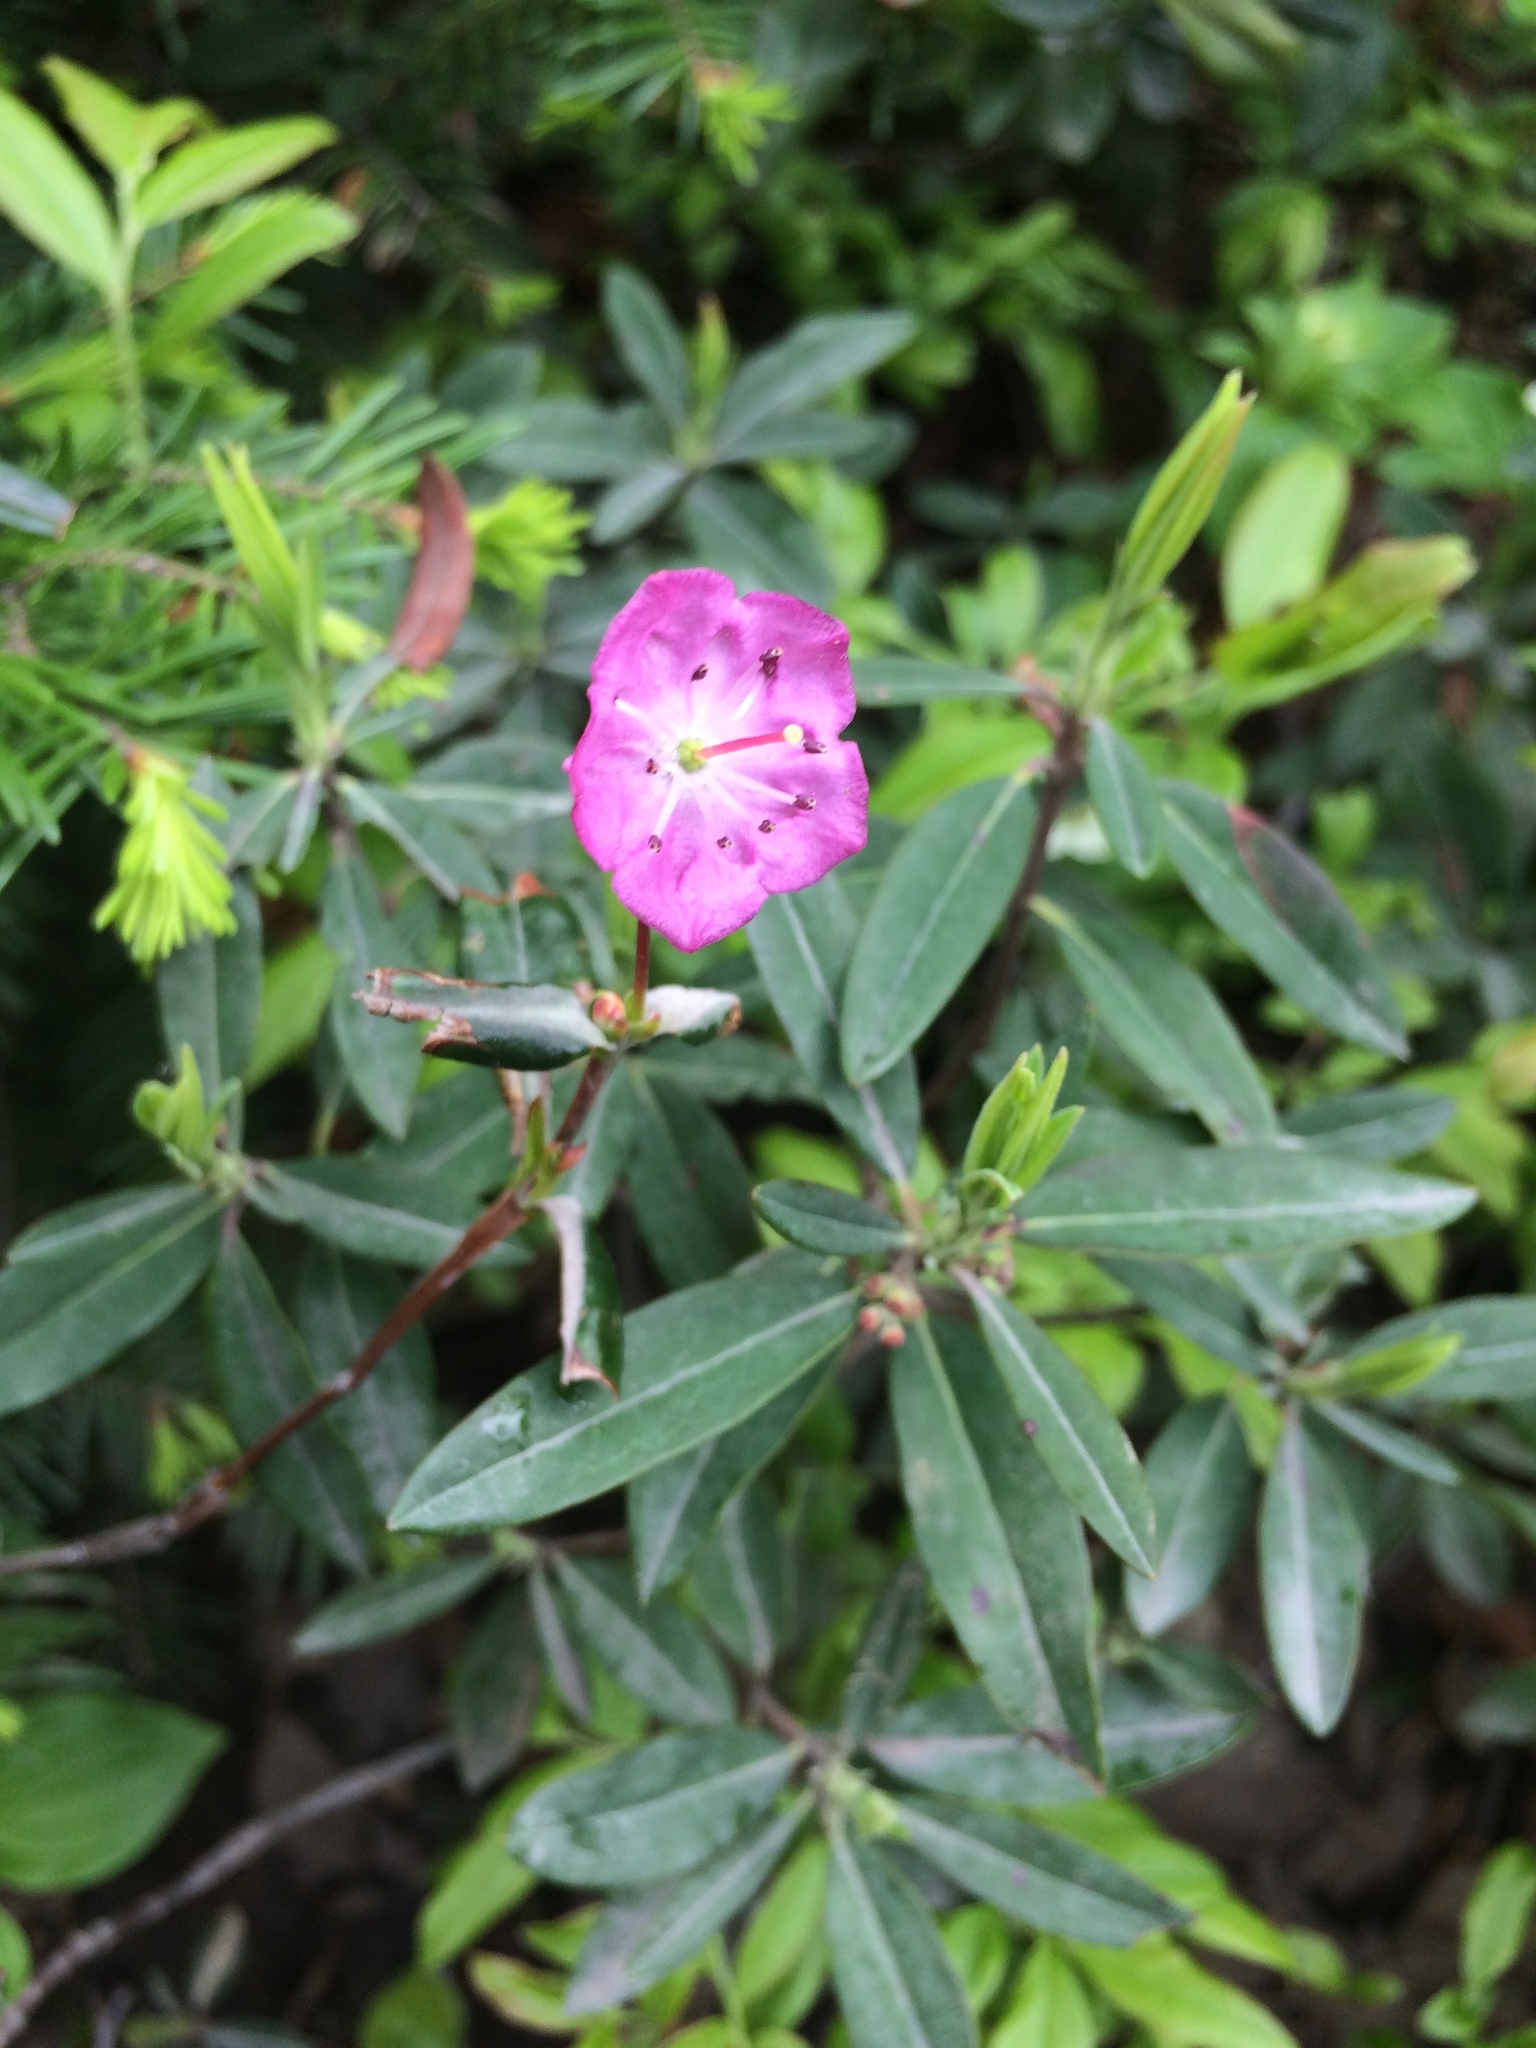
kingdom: Plantae
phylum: Tracheophyta
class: Magnoliopsida
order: Ericales
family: Ericaceae
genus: Kalmia
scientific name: Kalmia polifolia
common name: Bog-laurel
